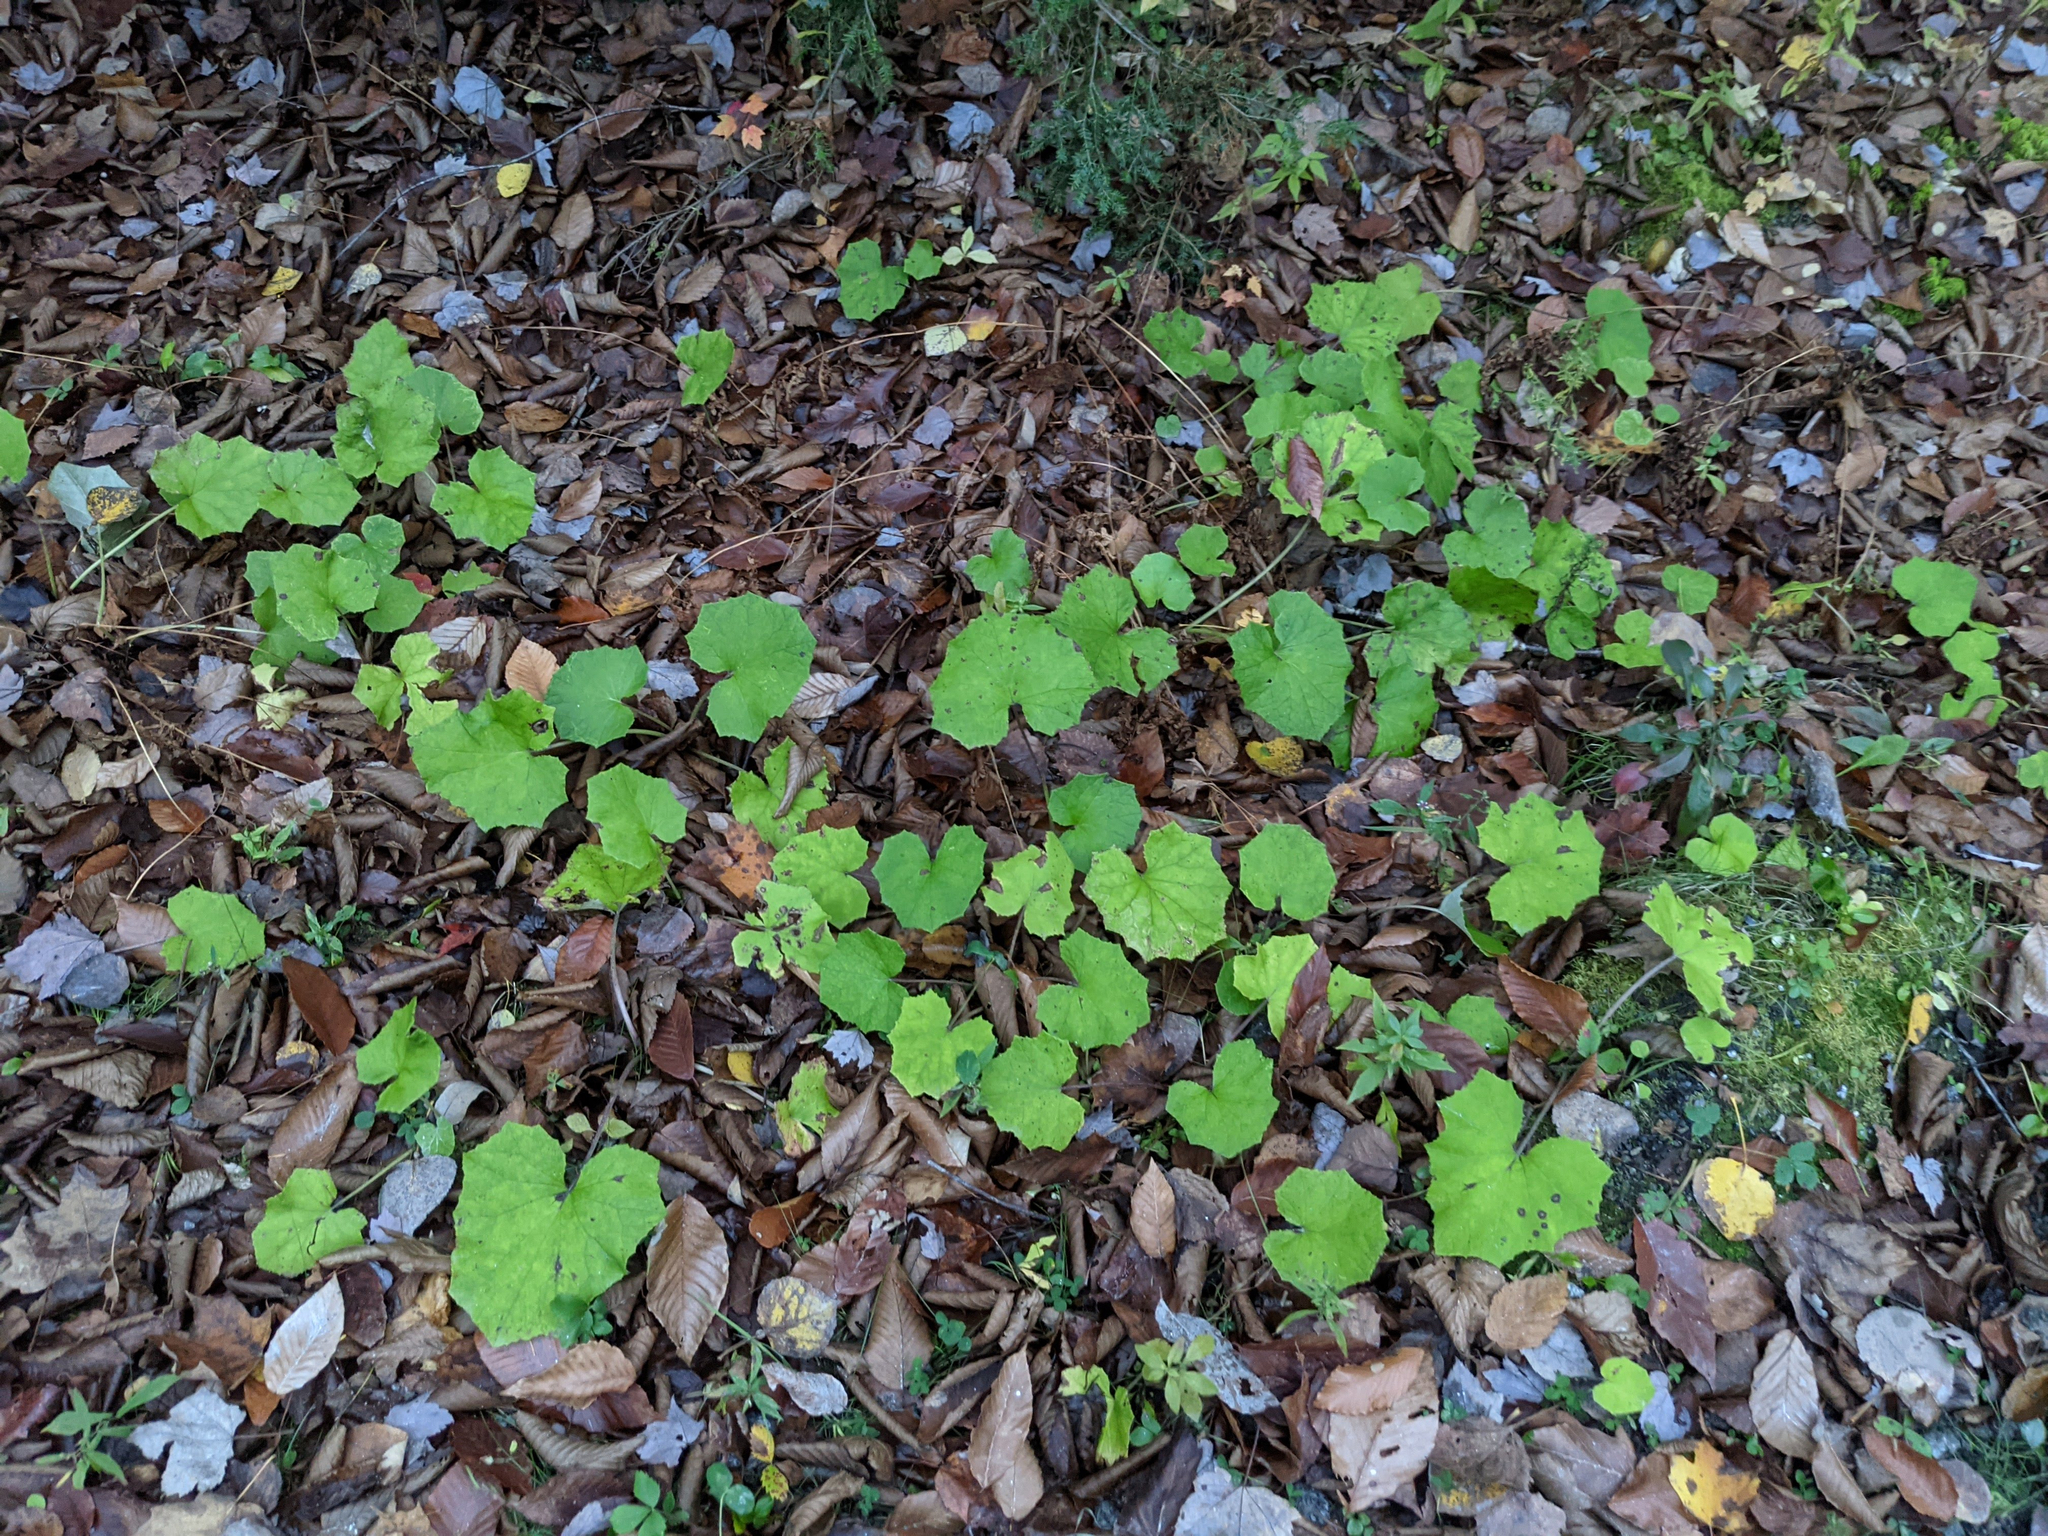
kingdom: Plantae
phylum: Tracheophyta
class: Magnoliopsida
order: Asterales
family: Asteraceae
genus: Tussilago
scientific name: Tussilago farfara
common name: Coltsfoot
